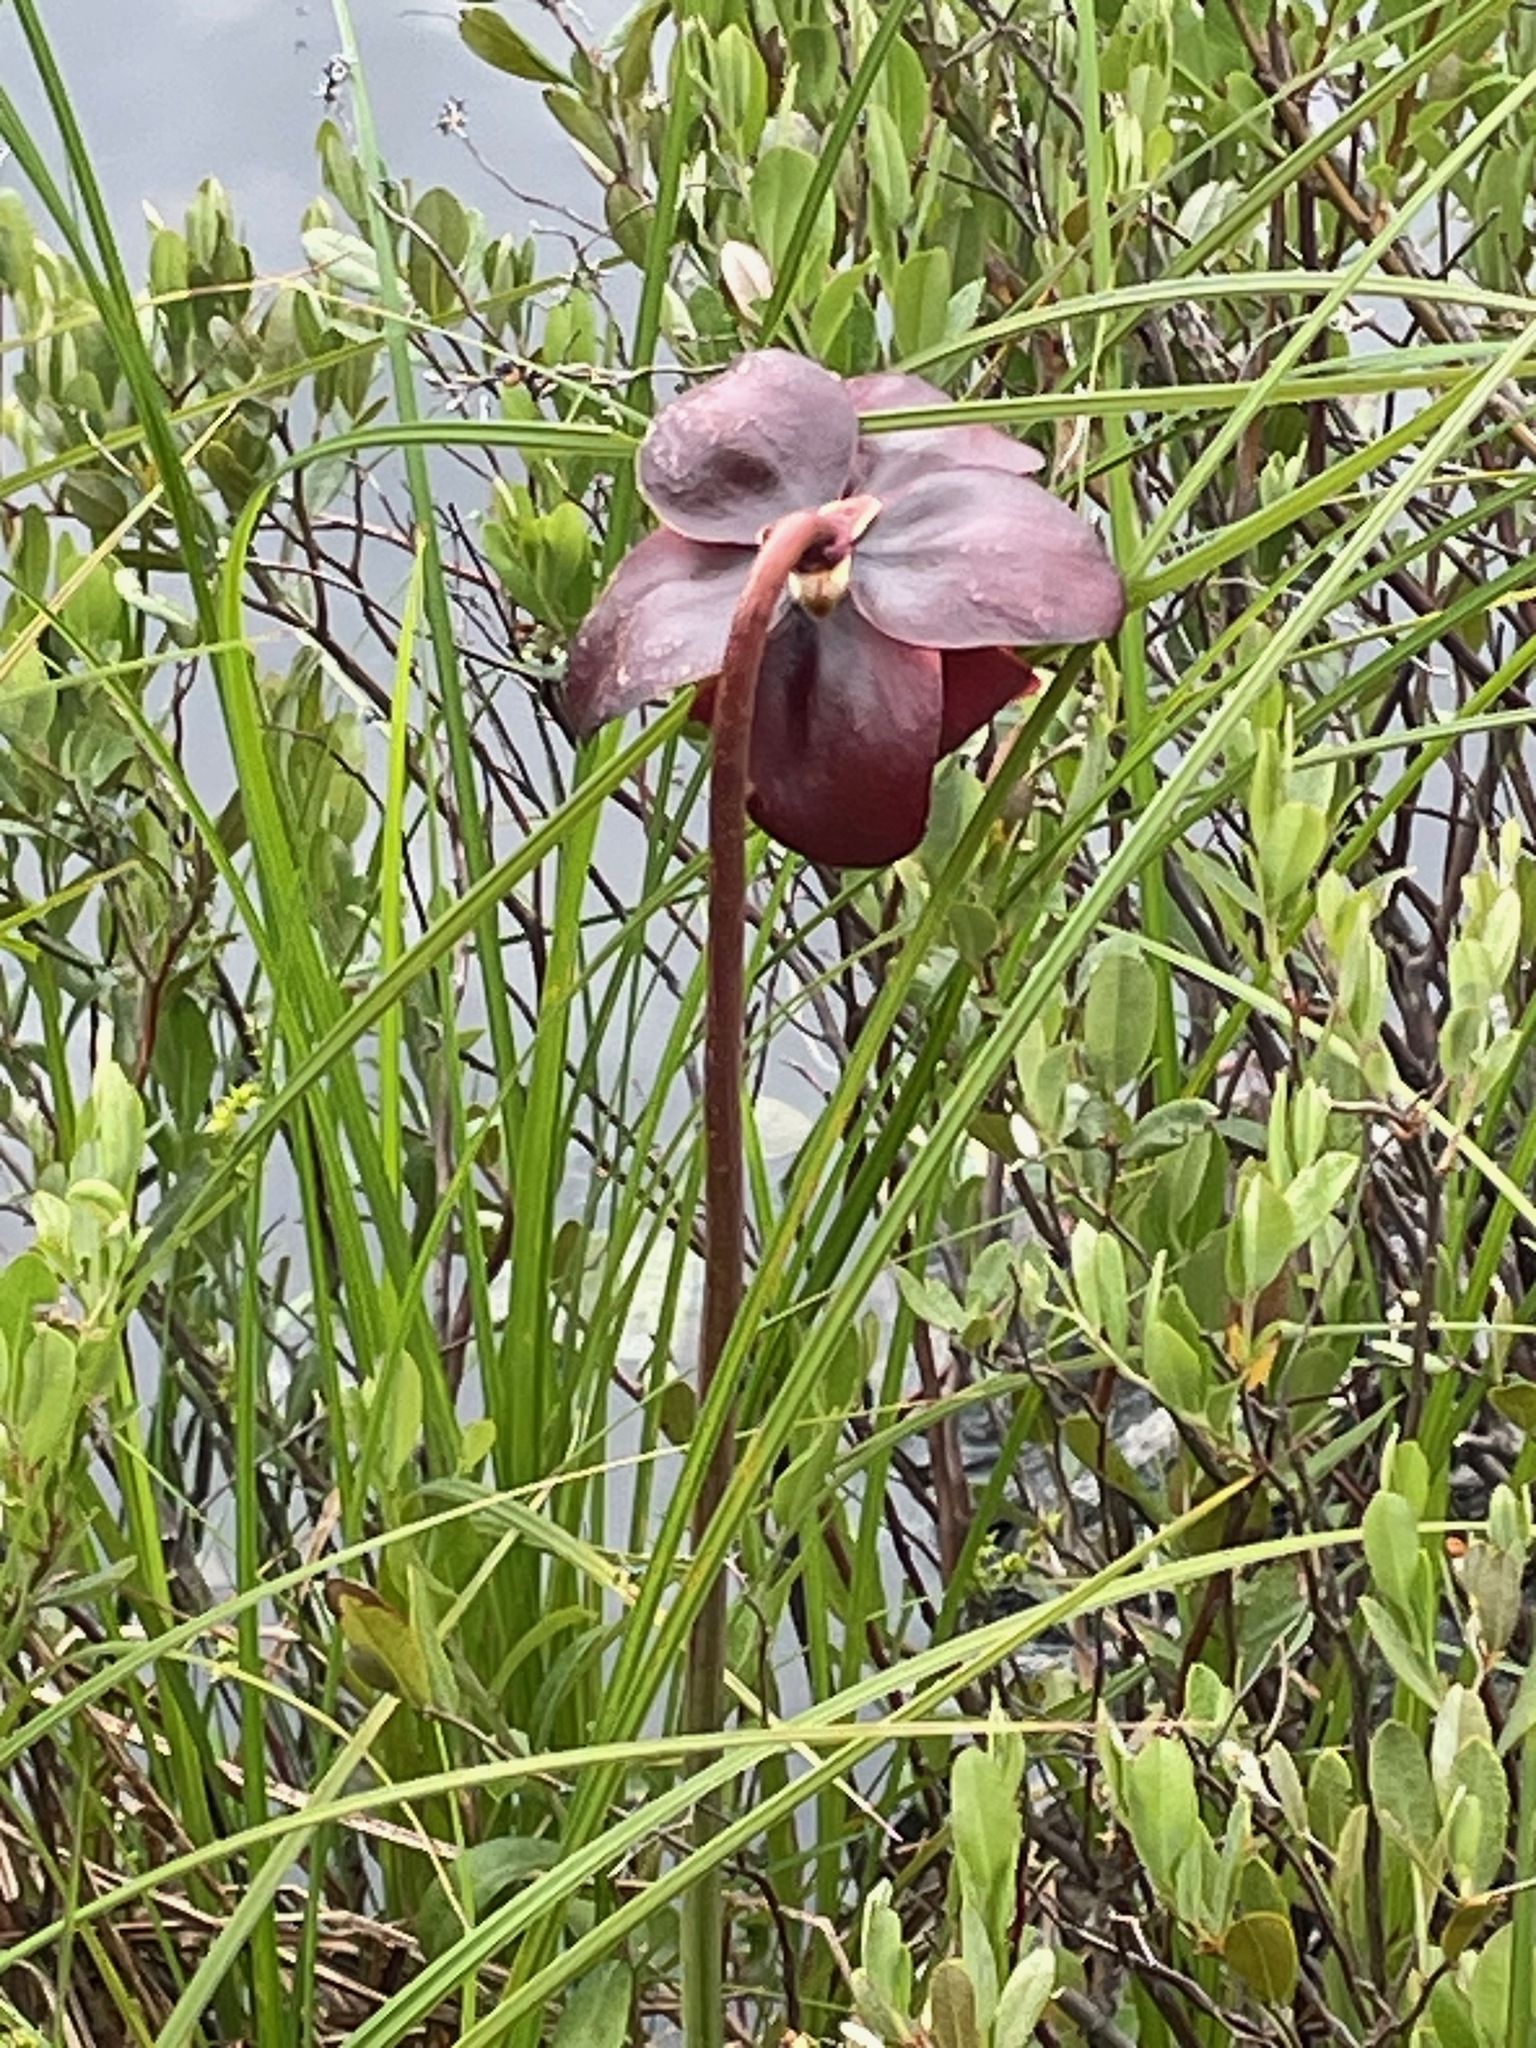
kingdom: Plantae
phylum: Tracheophyta
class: Magnoliopsida
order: Ericales
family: Sarraceniaceae
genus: Sarracenia
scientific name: Sarracenia purpurea
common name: Pitcherplant
